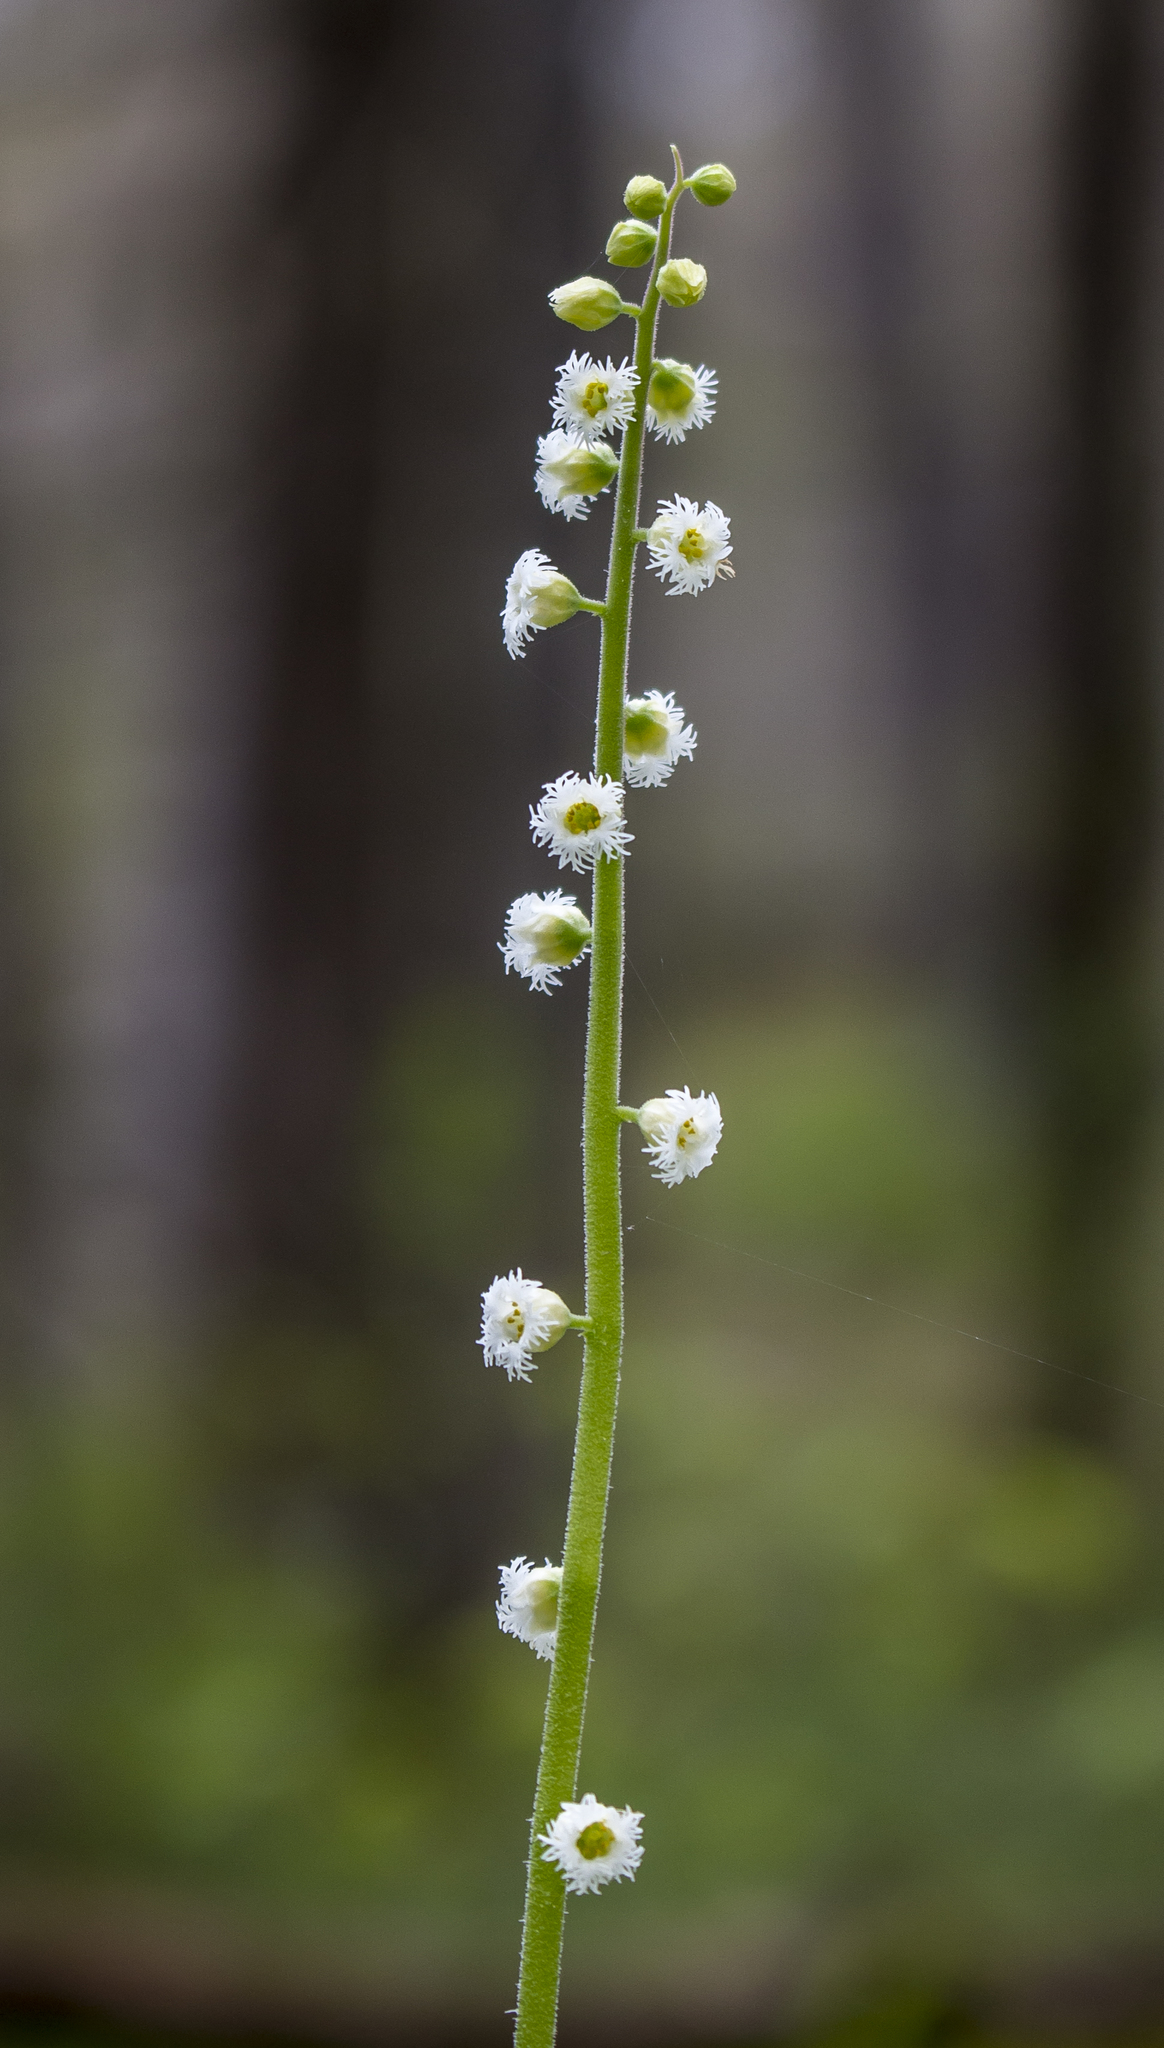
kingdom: Plantae
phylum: Tracheophyta
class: Magnoliopsida
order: Saxifragales
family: Saxifragaceae
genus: Mitella
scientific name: Mitella diphylla
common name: Coolwort
